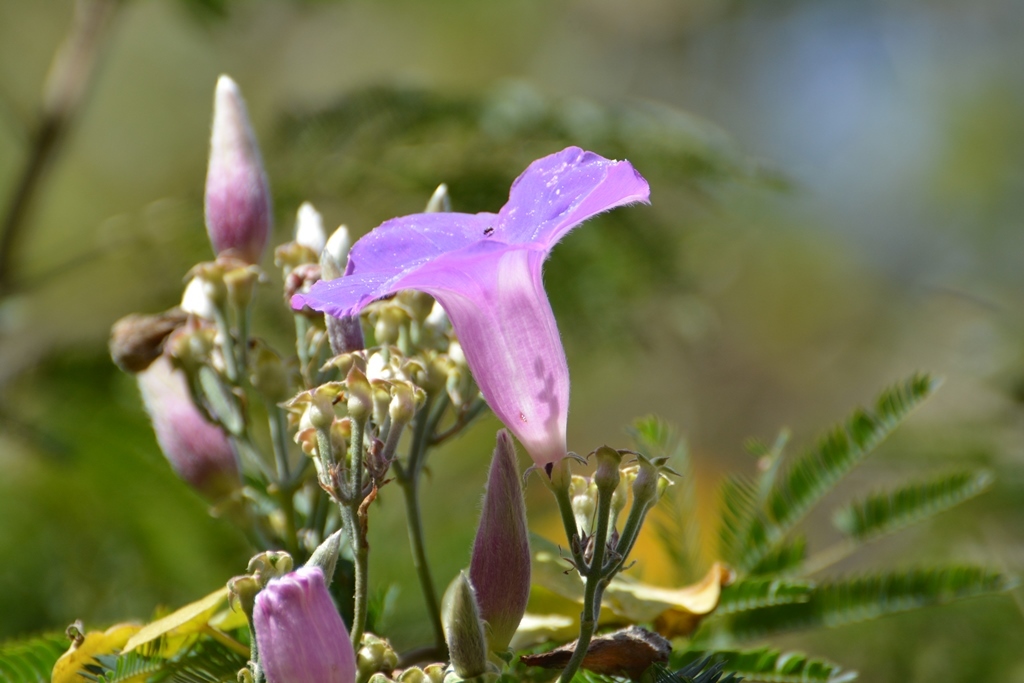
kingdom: Plantae
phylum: Tracheophyta
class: Magnoliopsida
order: Solanales
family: Convolvulaceae
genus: Ipomoea
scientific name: Ipomoea leucotricha
